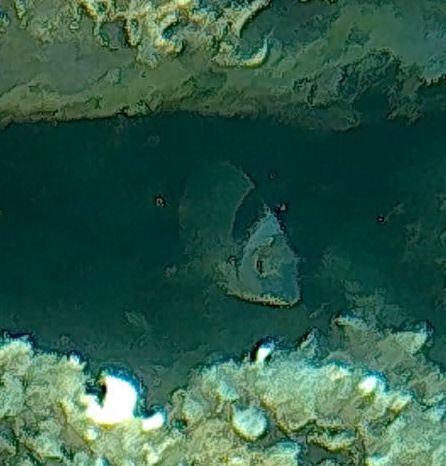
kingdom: Animalia
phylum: Chordata
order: Perciformes
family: Sparidae
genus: Diplodus
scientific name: Diplodus vulgaris
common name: Common two-banded seabream
